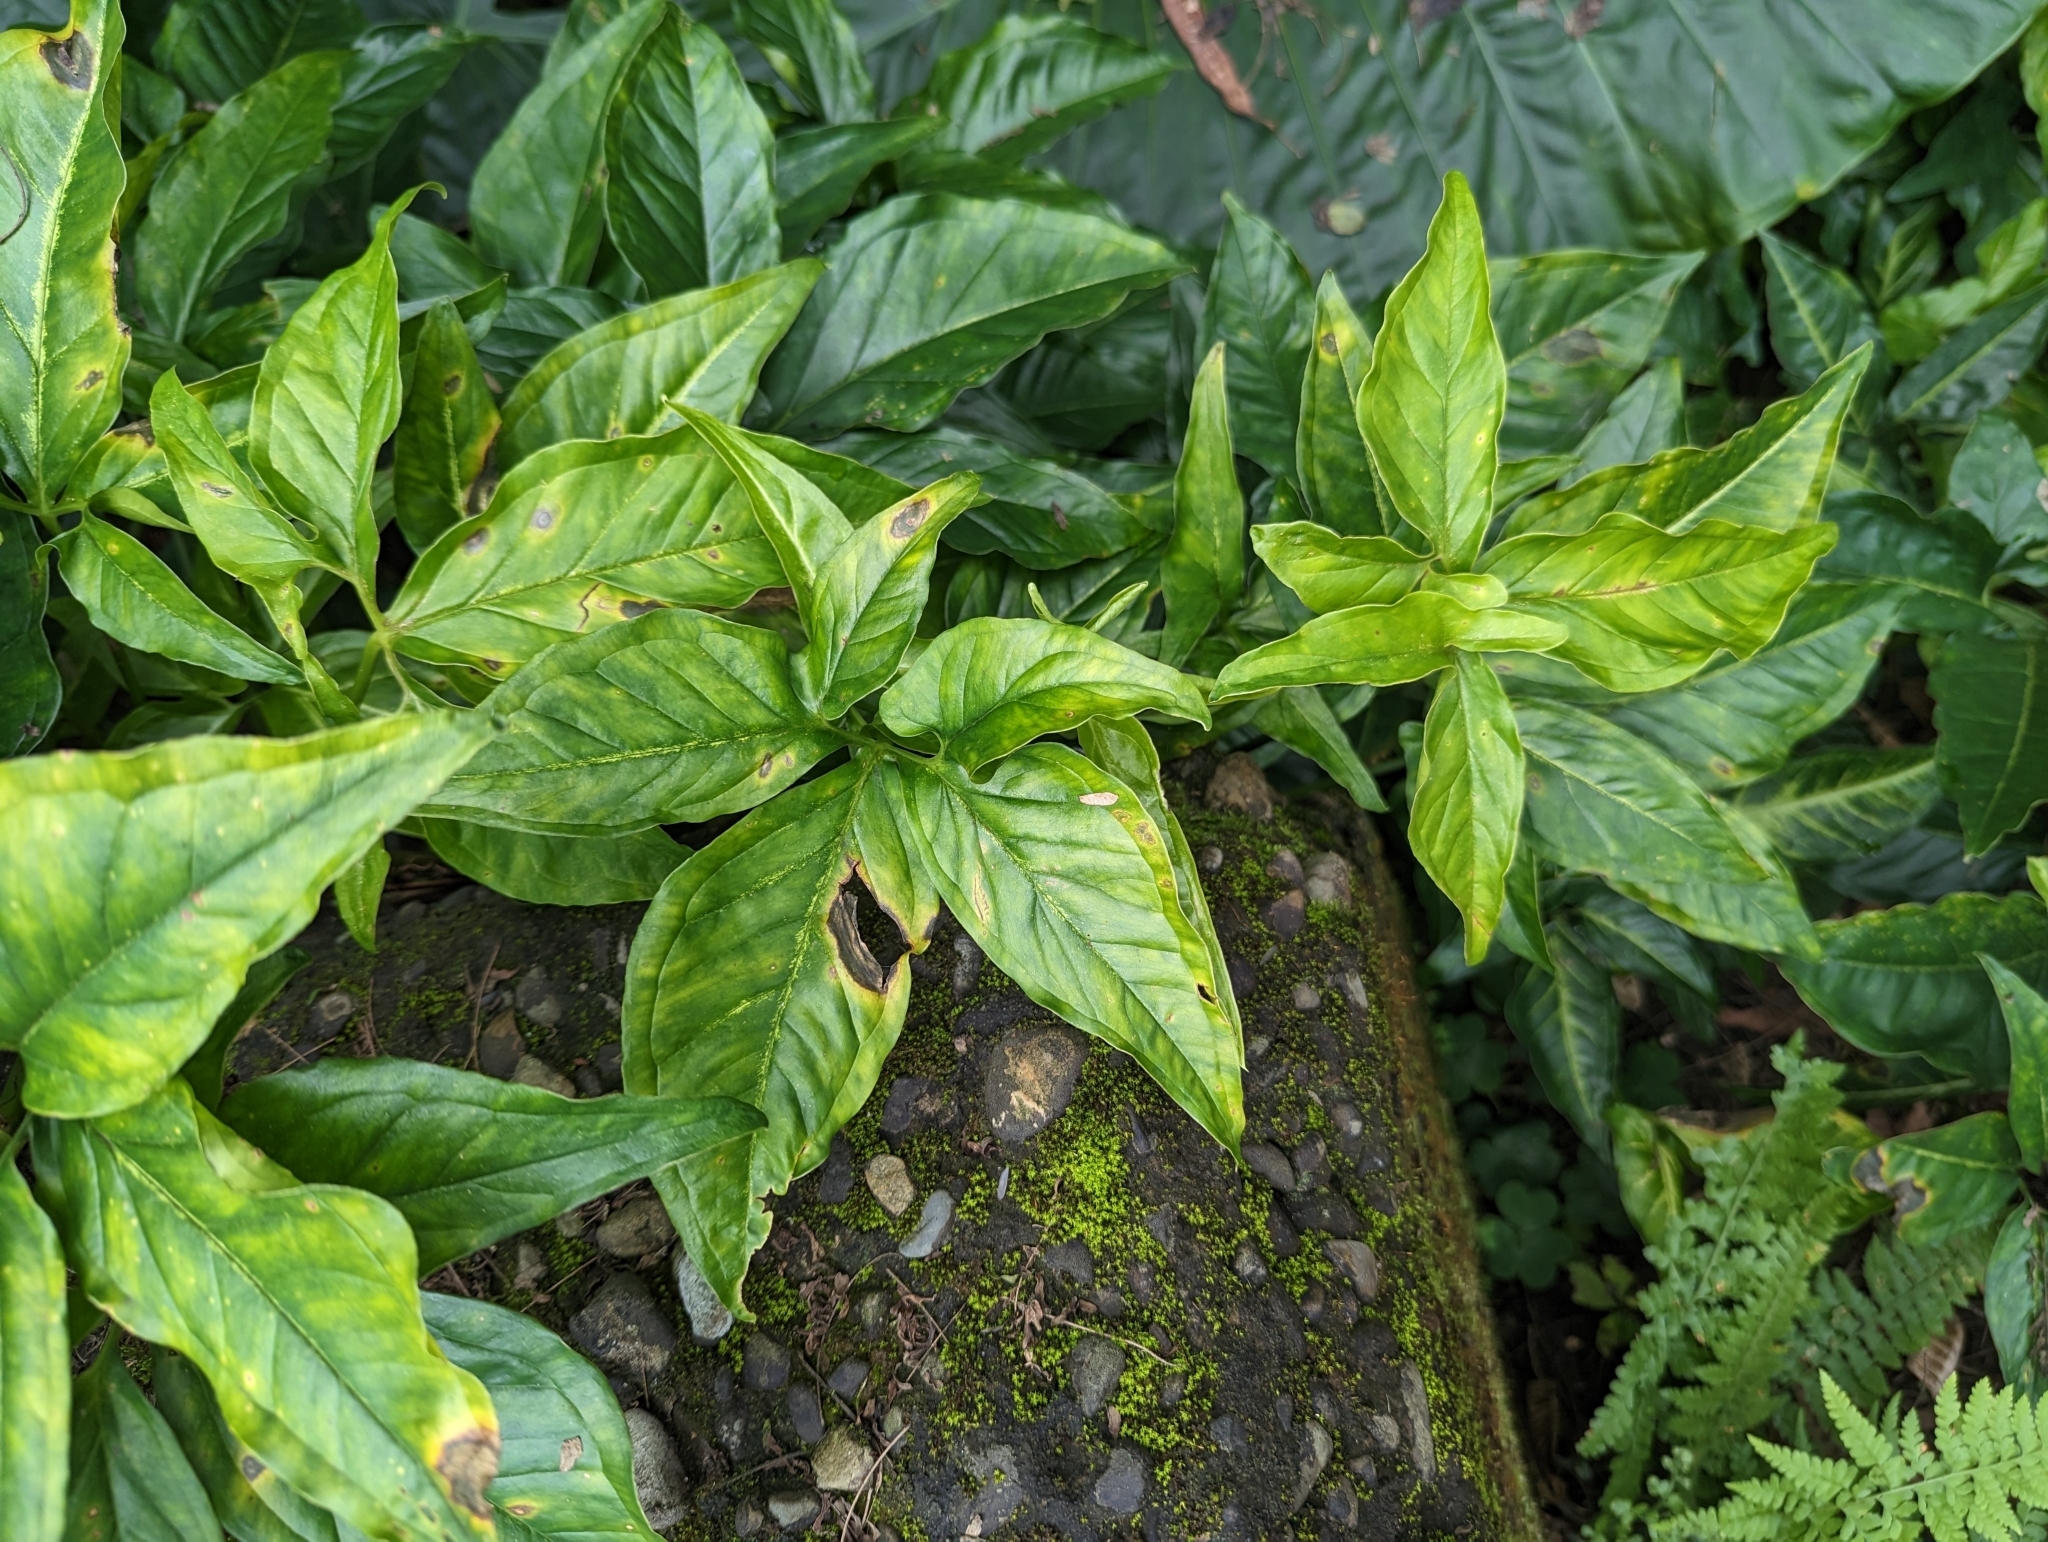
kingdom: Plantae
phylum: Tracheophyta
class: Liliopsida
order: Alismatales
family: Araceae
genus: Syngonium
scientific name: Syngonium angustatum
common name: Fivefingers
